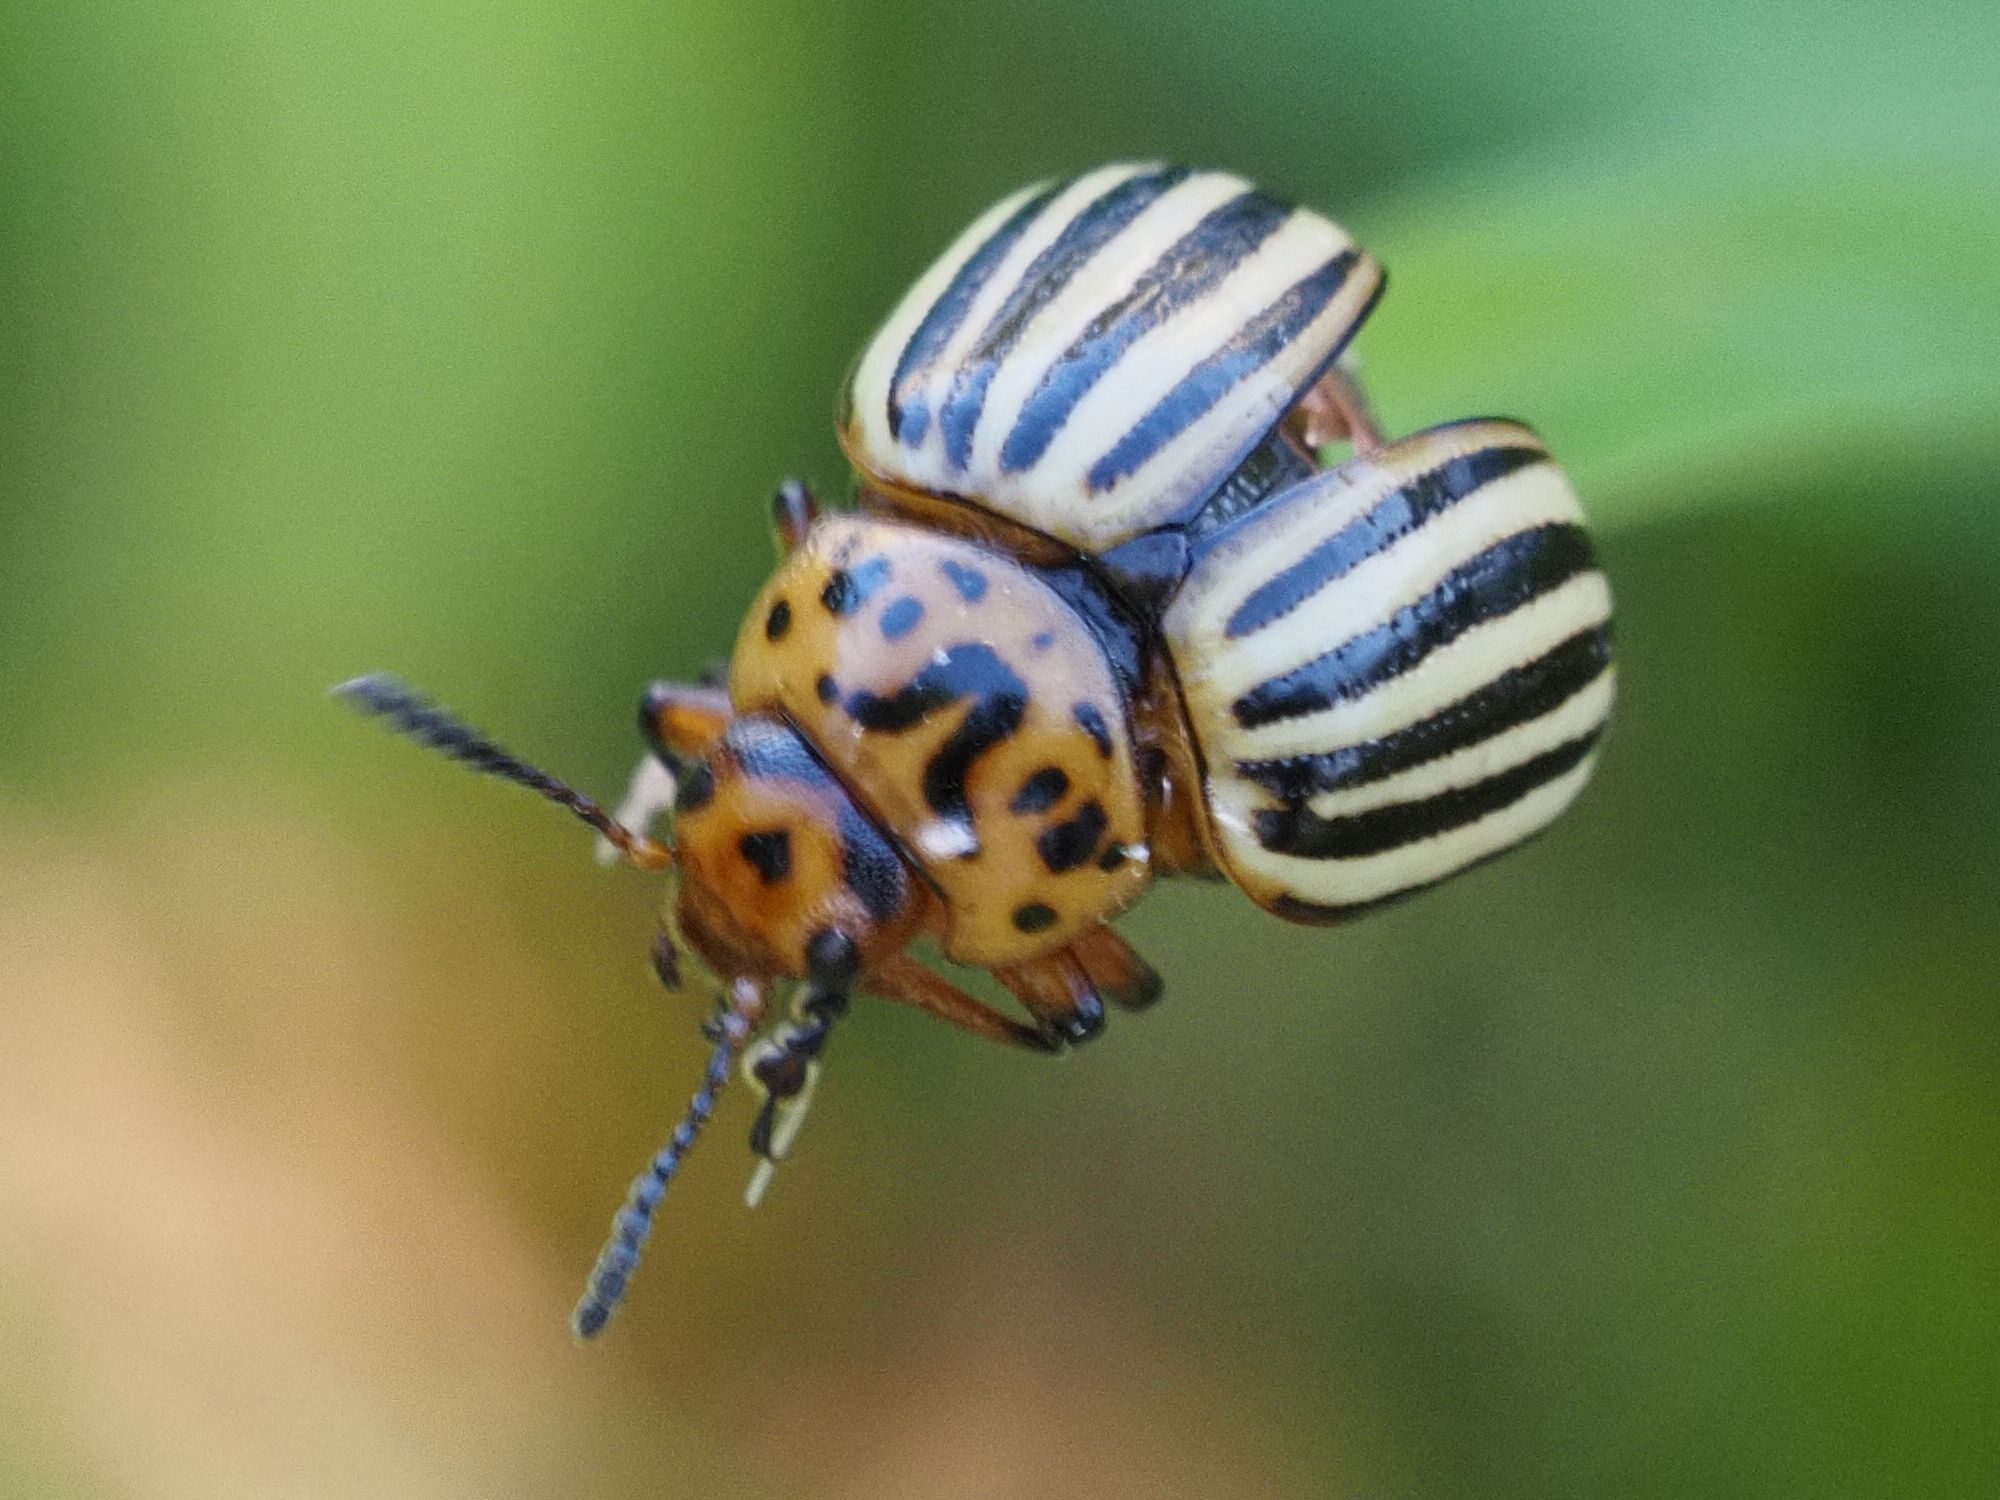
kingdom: Animalia
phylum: Arthropoda
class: Insecta
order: Coleoptera
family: Chrysomelidae
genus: Leptinotarsa
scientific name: Leptinotarsa decemlineata
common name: Colorado potato beetle
